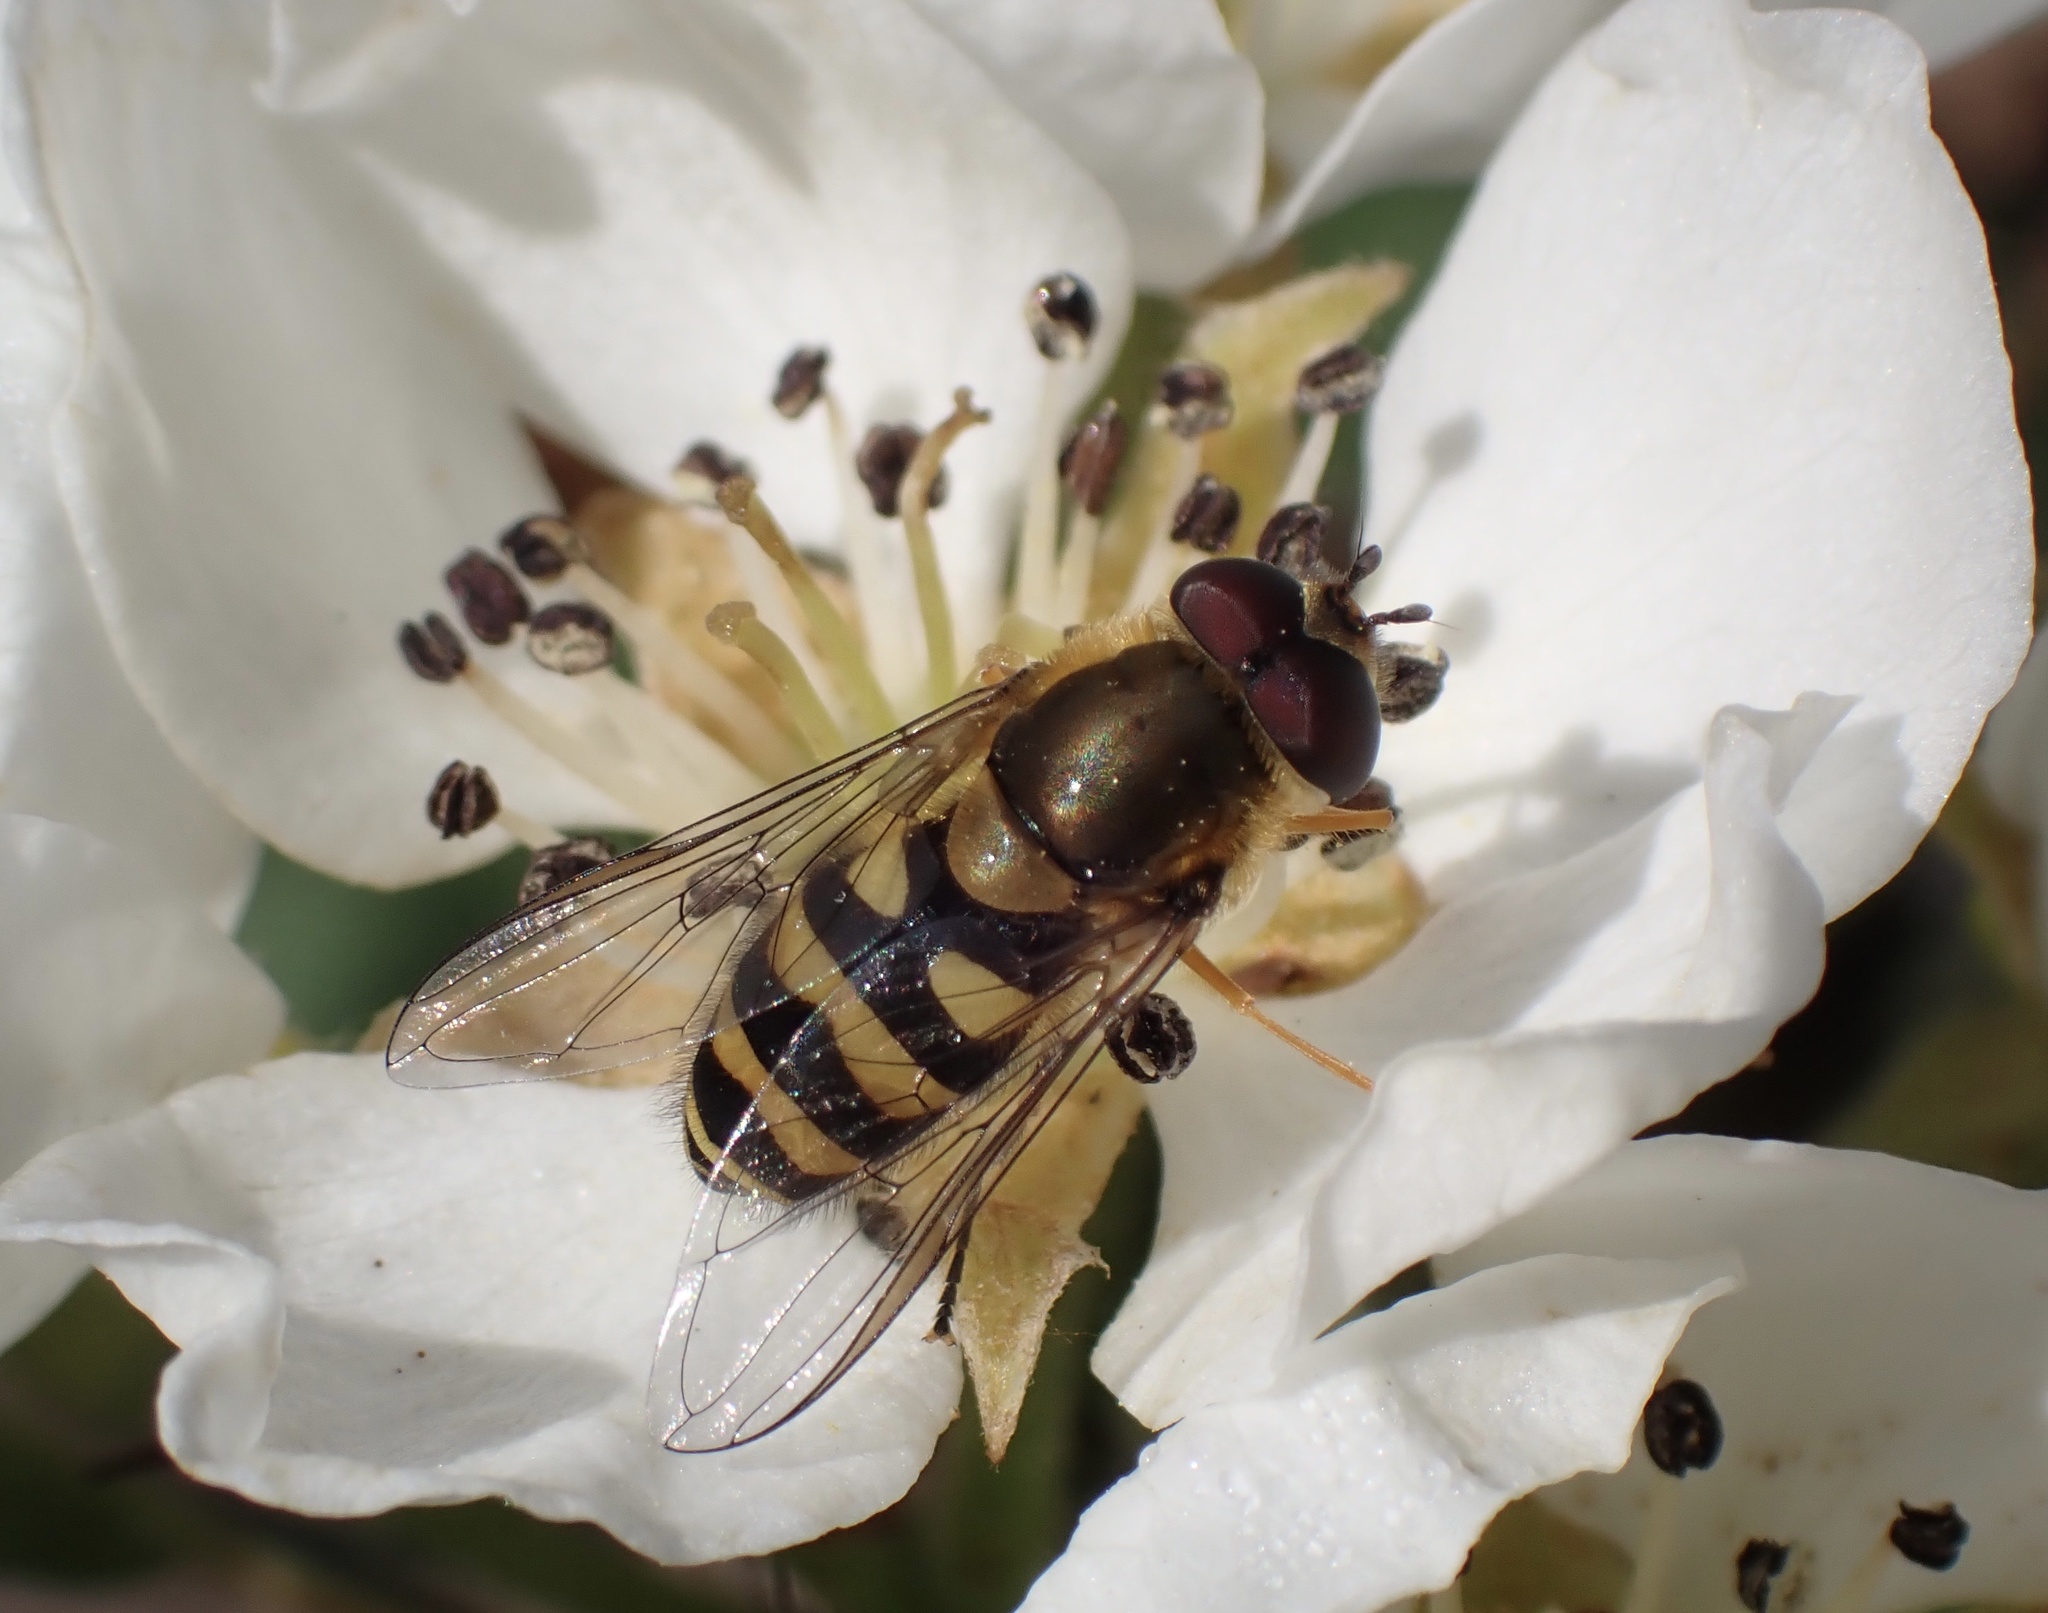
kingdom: Animalia
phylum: Arthropoda
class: Insecta
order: Diptera
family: Syrphidae
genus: Syrphus
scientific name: Syrphus
